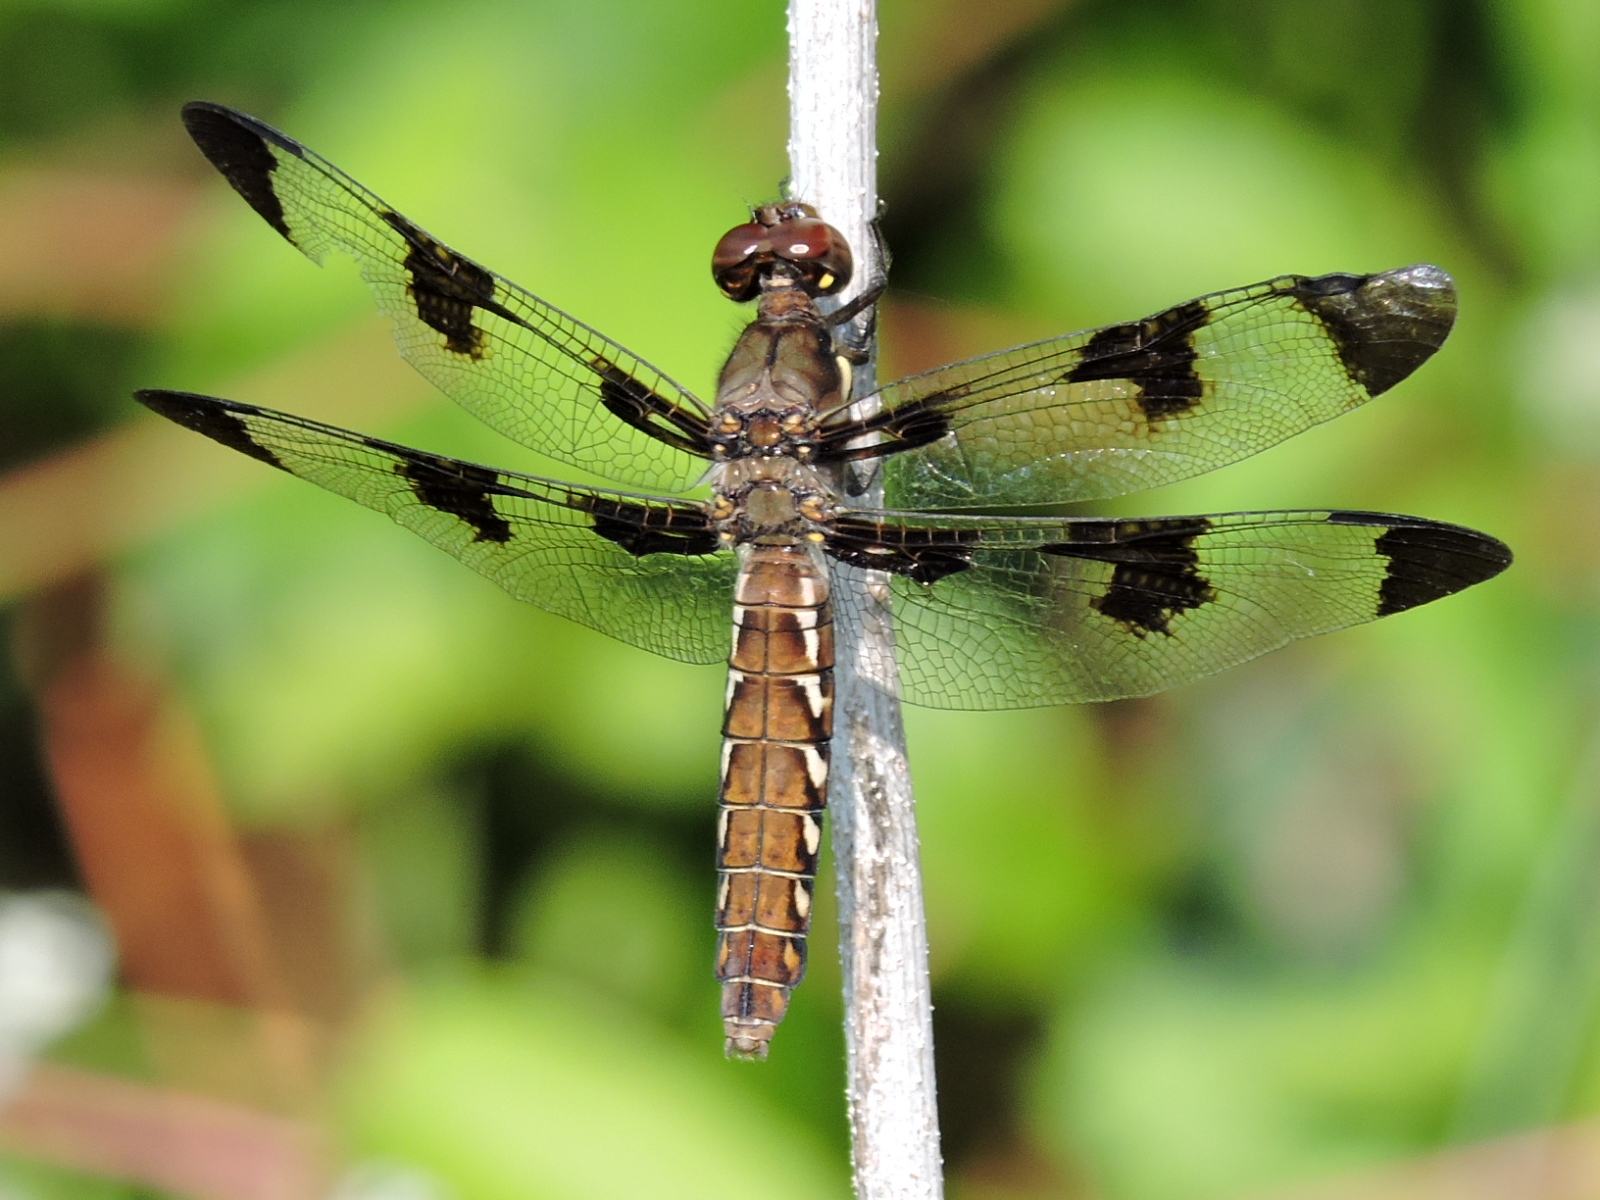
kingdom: Animalia
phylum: Arthropoda
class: Insecta
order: Odonata
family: Libellulidae
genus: Plathemis
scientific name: Plathemis lydia
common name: Common whitetail
